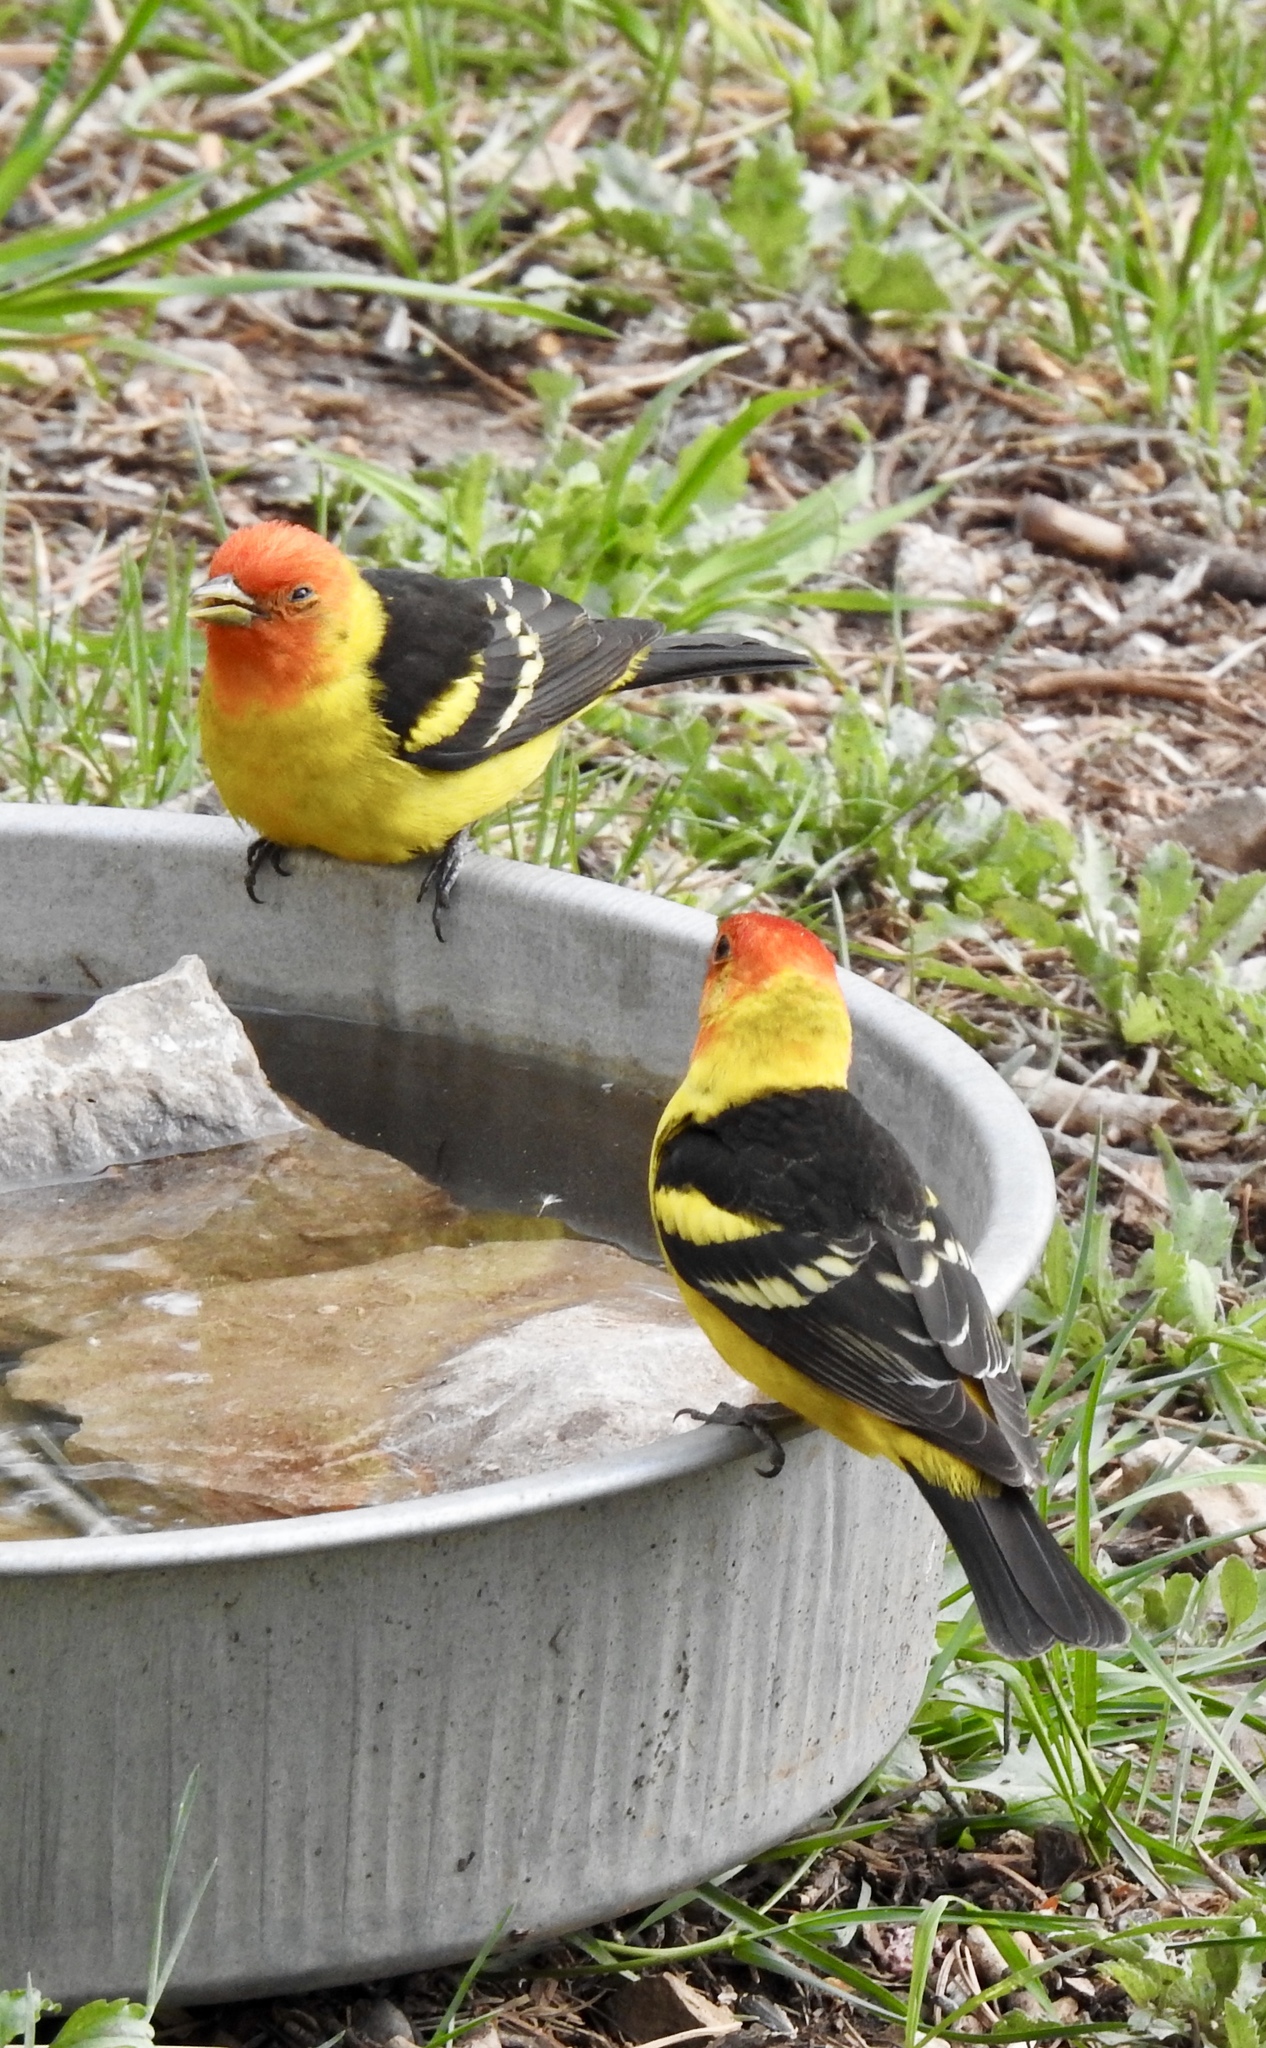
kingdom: Animalia
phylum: Chordata
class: Aves
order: Passeriformes
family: Cardinalidae
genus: Piranga
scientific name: Piranga ludoviciana
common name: Western tanager
